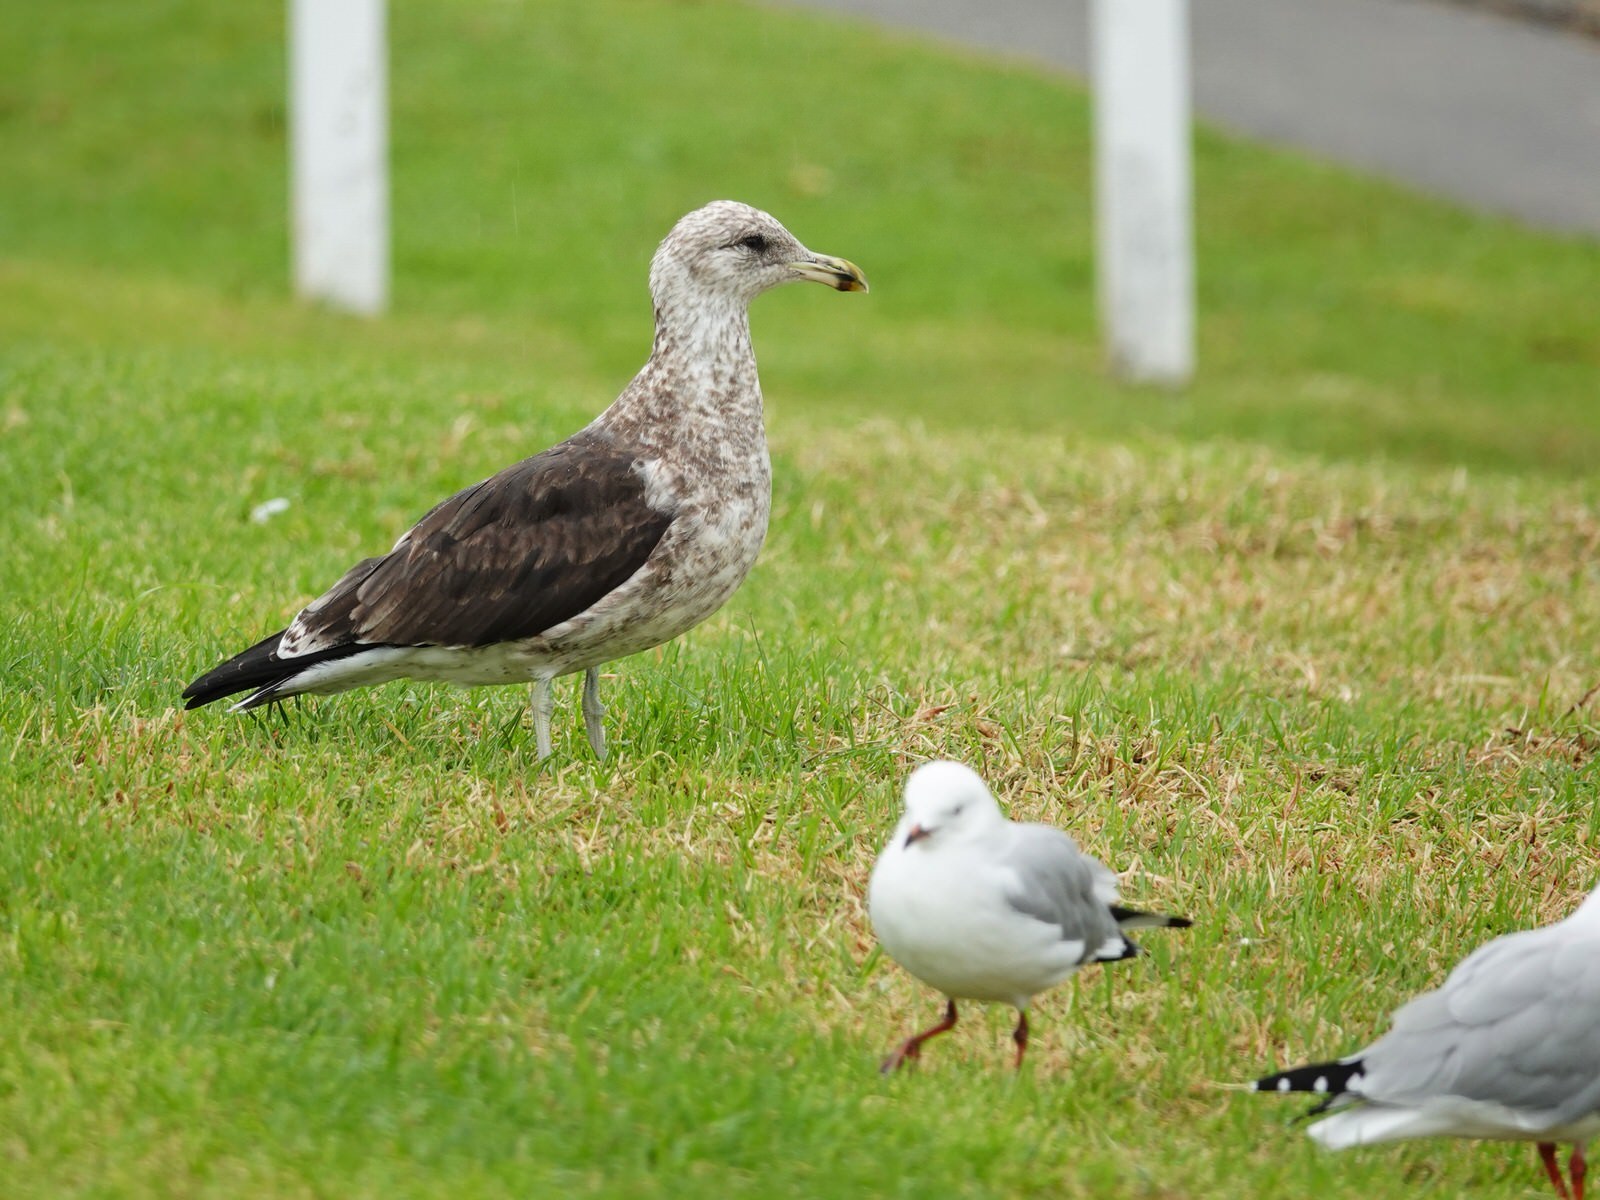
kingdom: Animalia
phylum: Chordata
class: Aves
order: Charadriiformes
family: Laridae
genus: Larus
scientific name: Larus dominicanus
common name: Kelp gull
